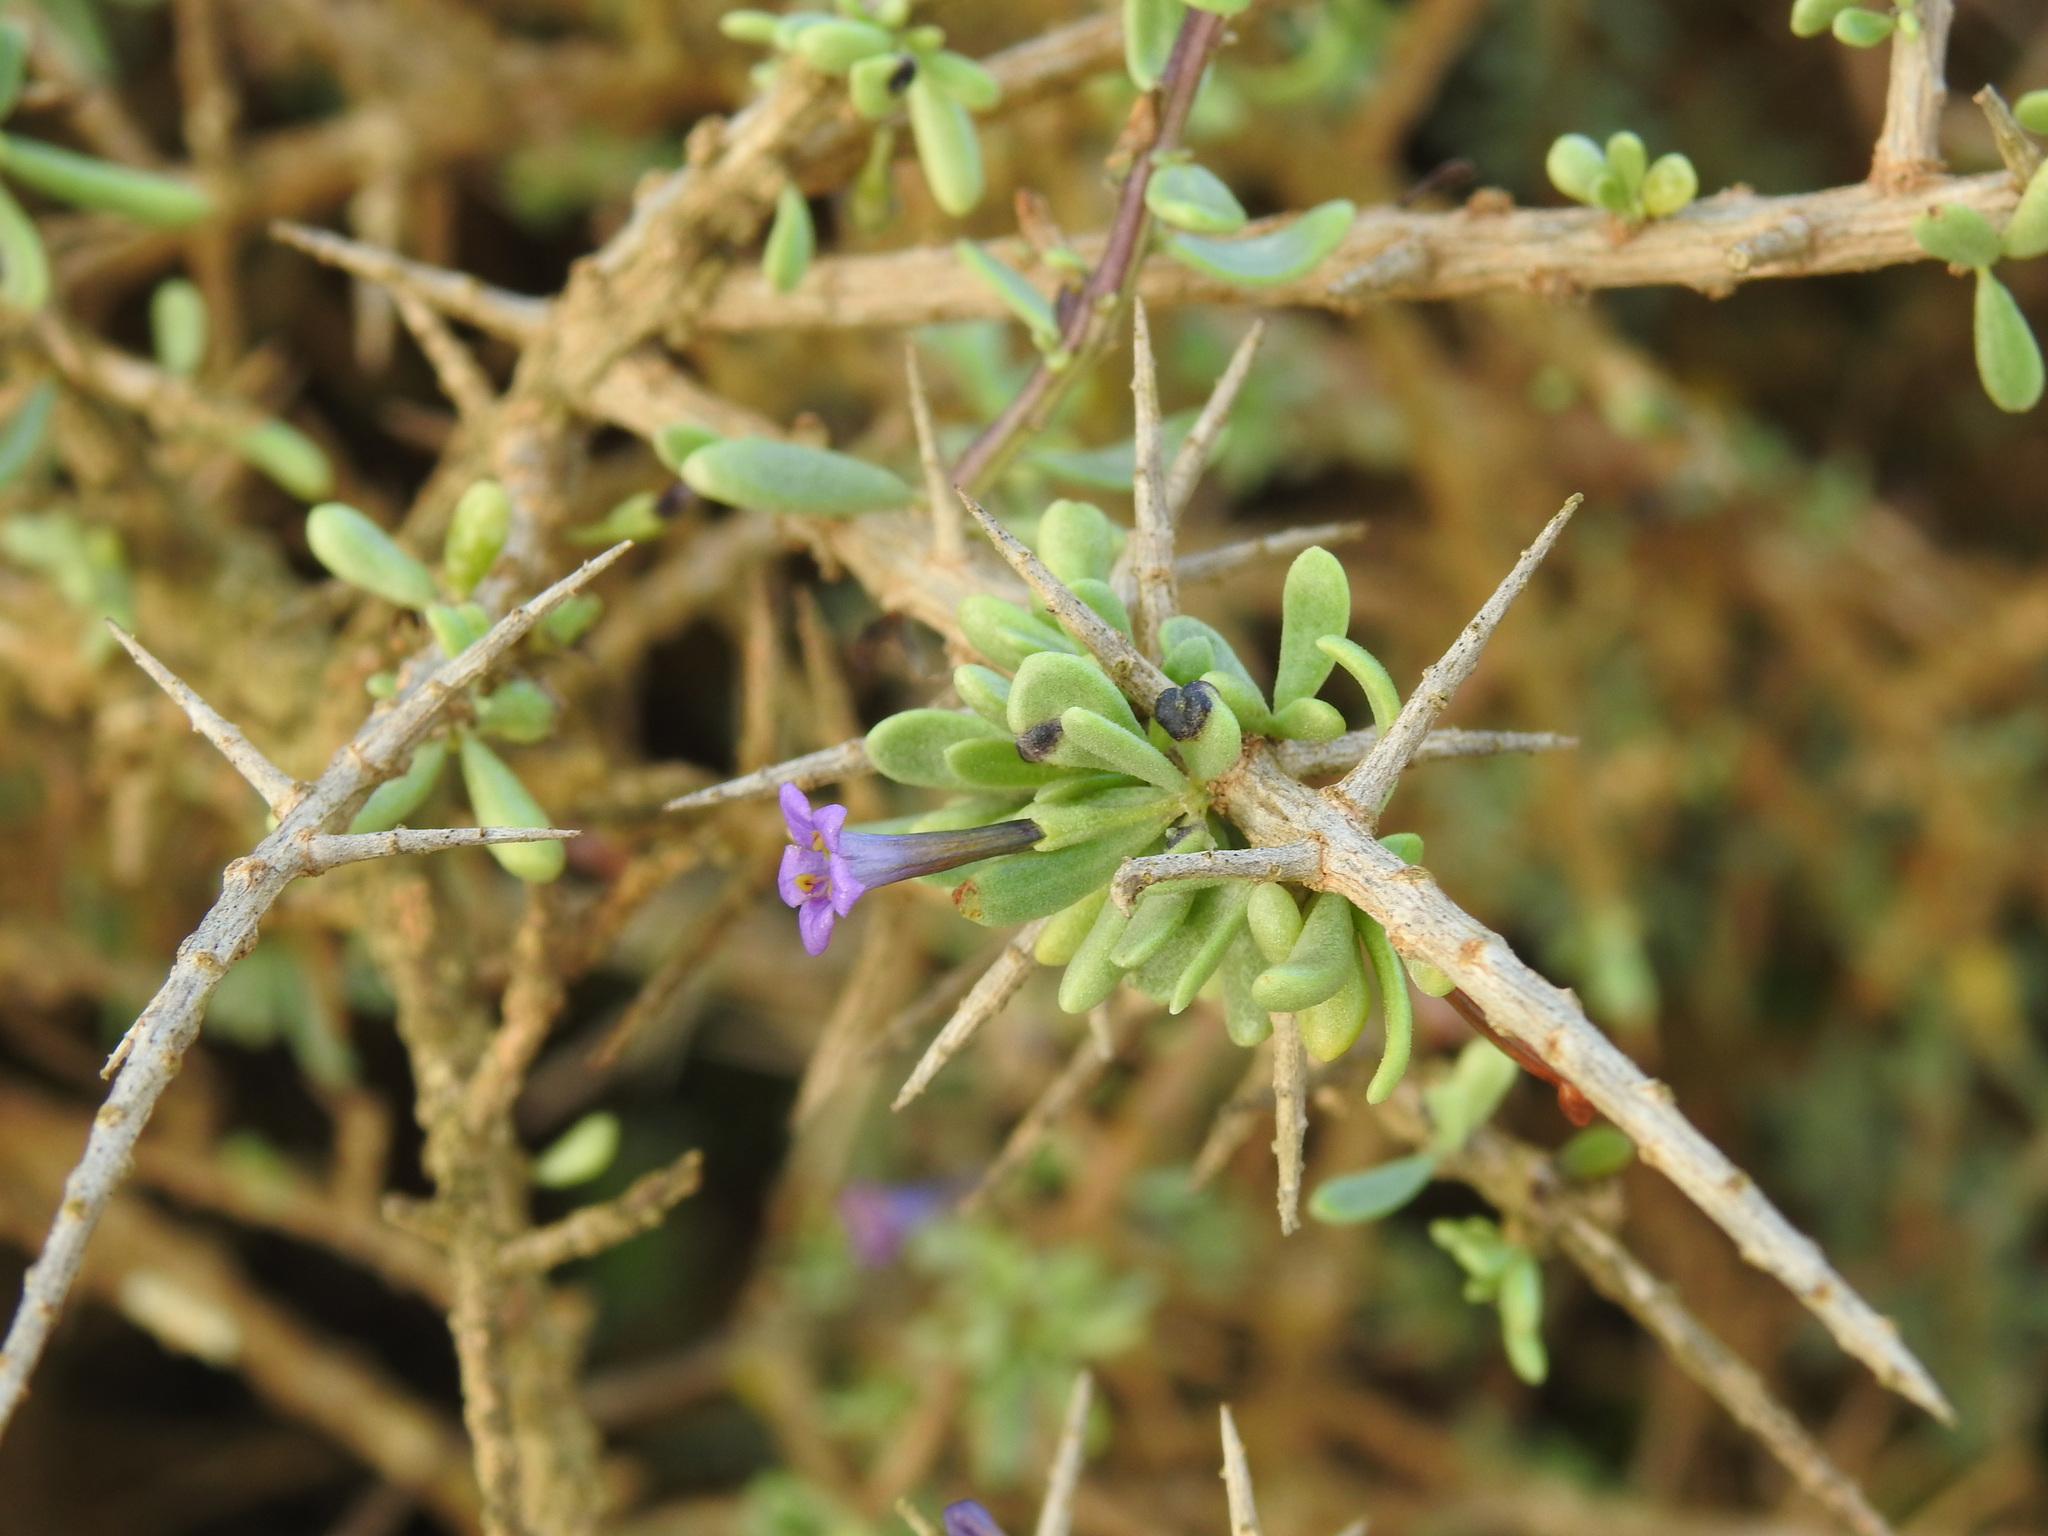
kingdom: Plantae
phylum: Tracheophyta
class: Magnoliopsida
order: Solanales
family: Solanaceae
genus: Lycium
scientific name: Lycium intricatum
